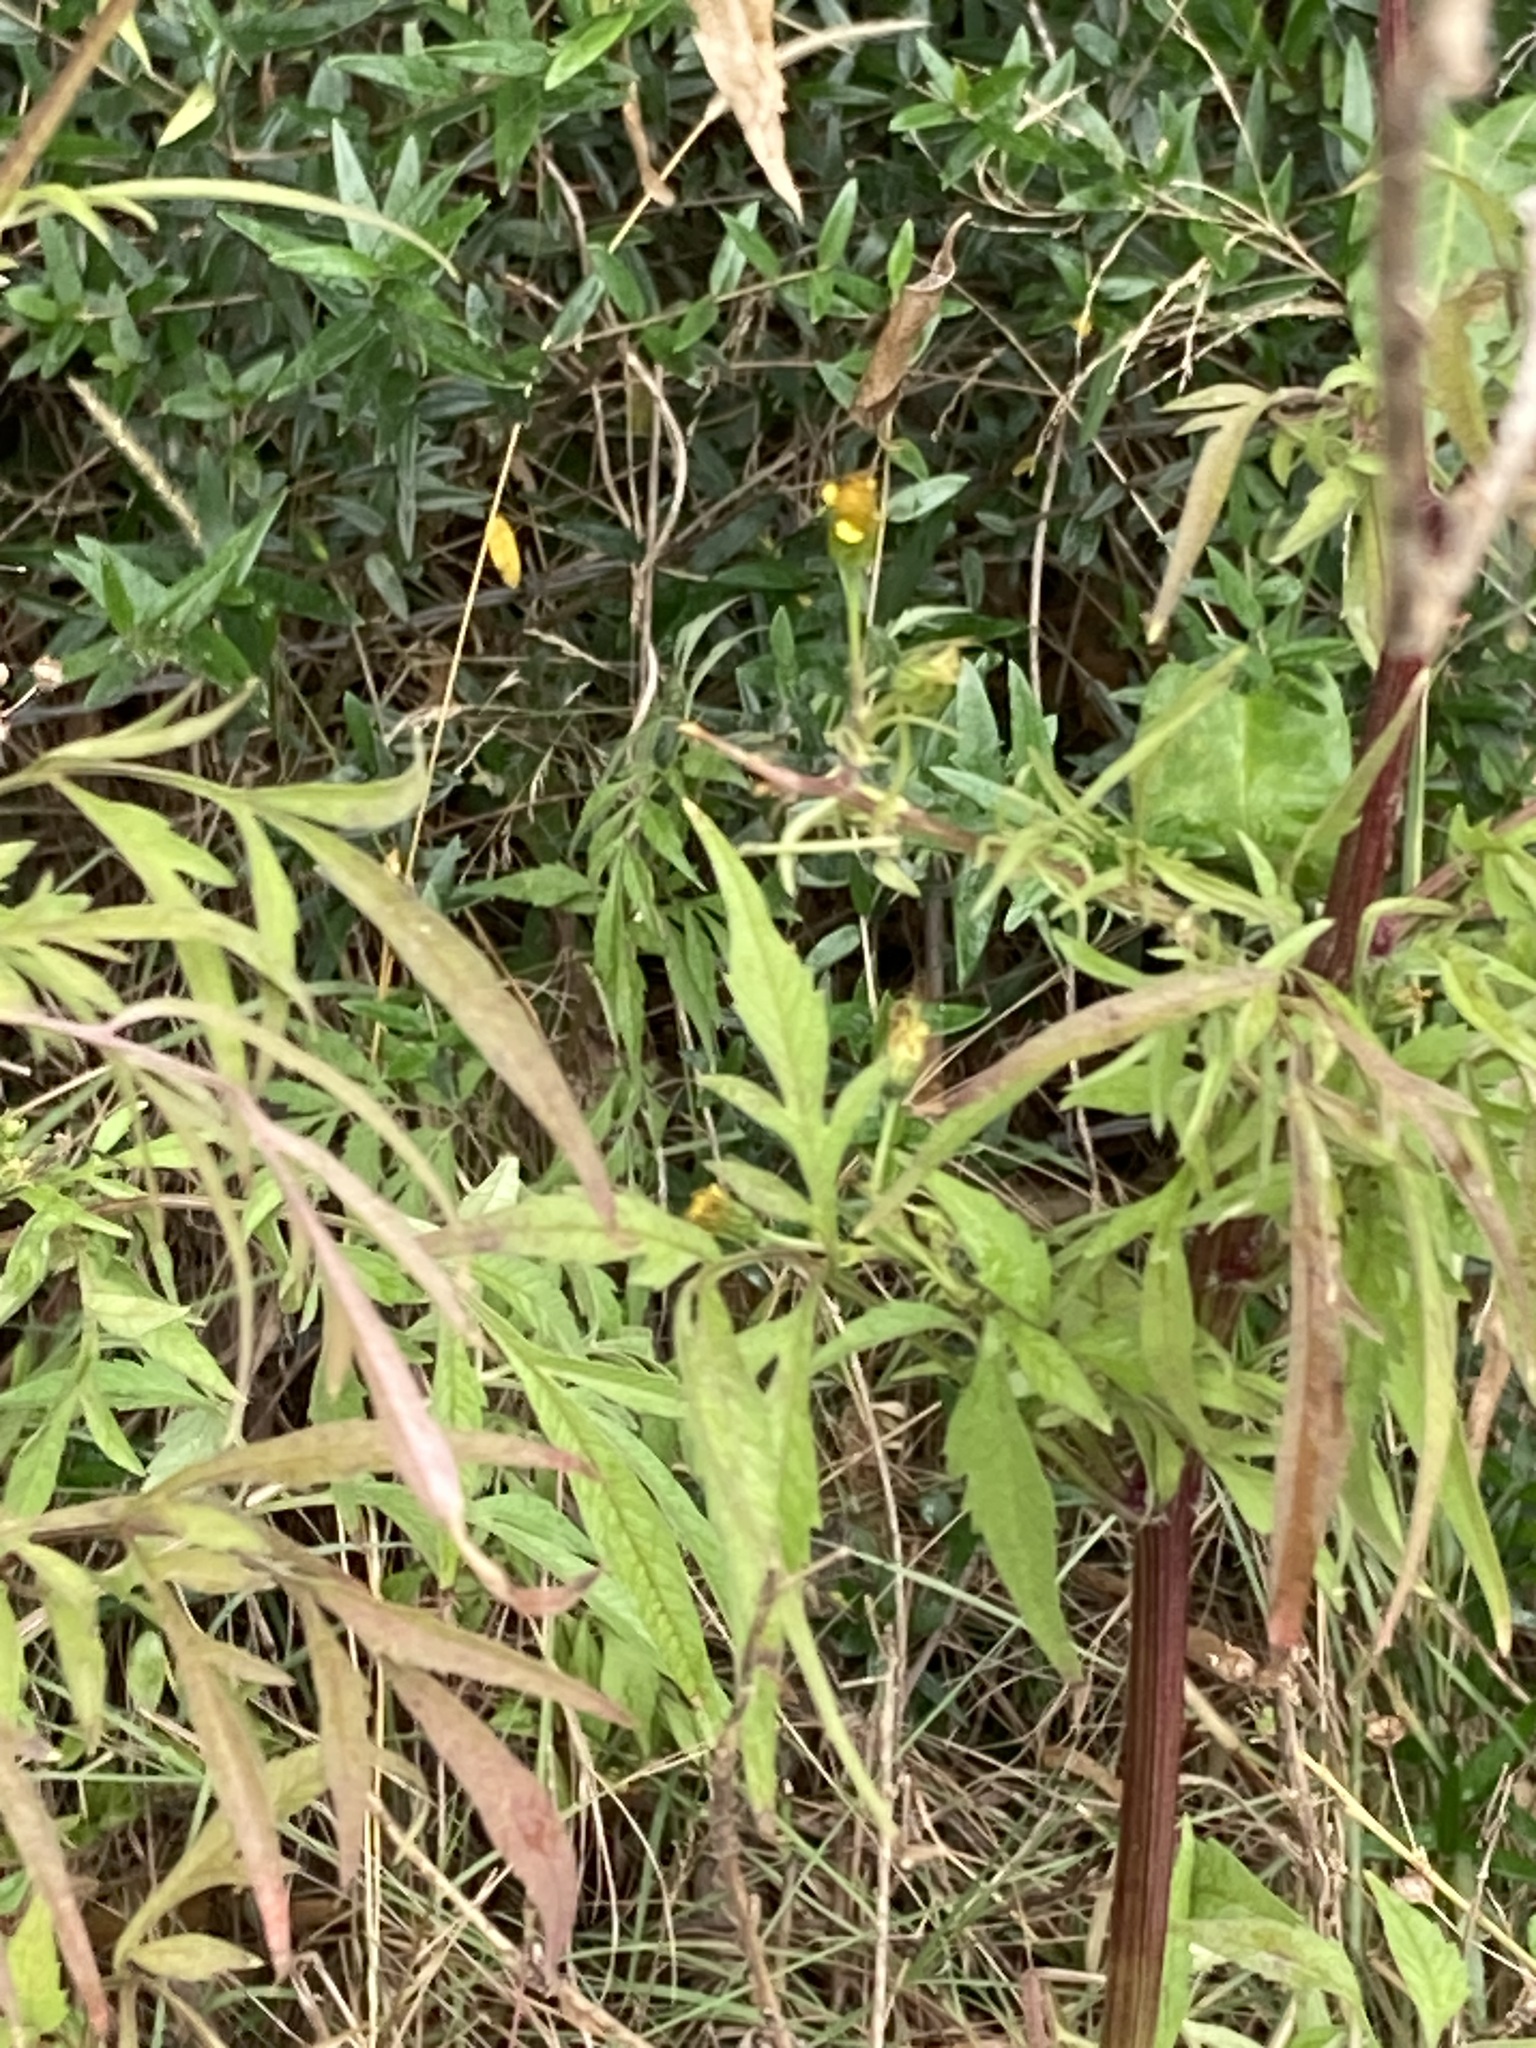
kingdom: Plantae
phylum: Tracheophyta
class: Magnoliopsida
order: Asterales
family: Asteraceae
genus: Bidens
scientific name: Bidens subalternans
